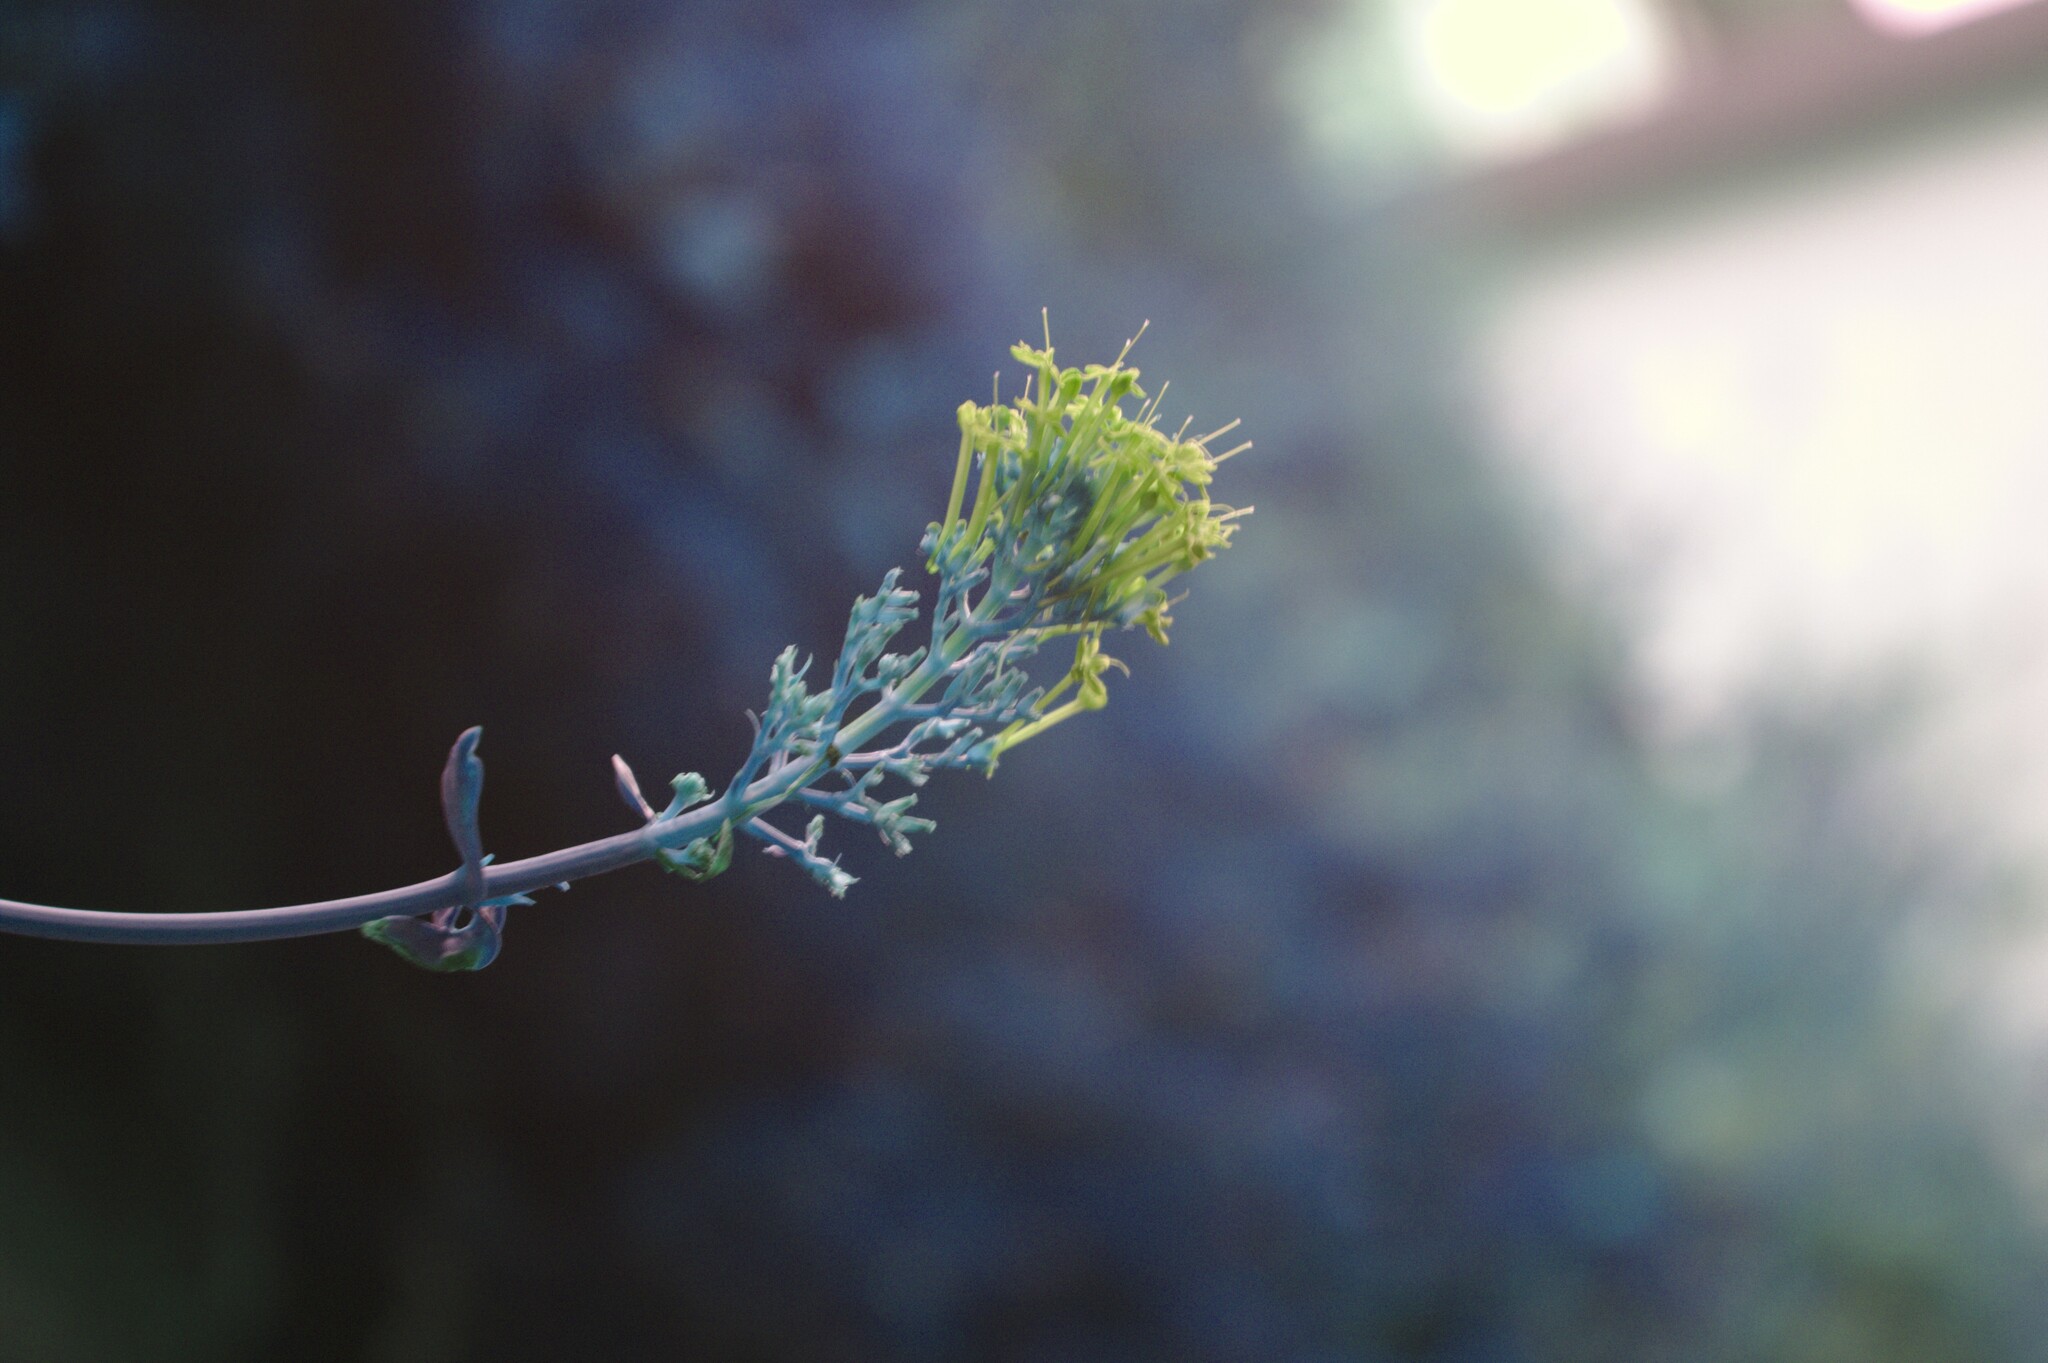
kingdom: Plantae
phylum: Tracheophyta
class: Magnoliopsida
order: Dipsacales
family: Caprifoliaceae
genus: Centranthus
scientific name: Centranthus ruber
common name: Red valerian
